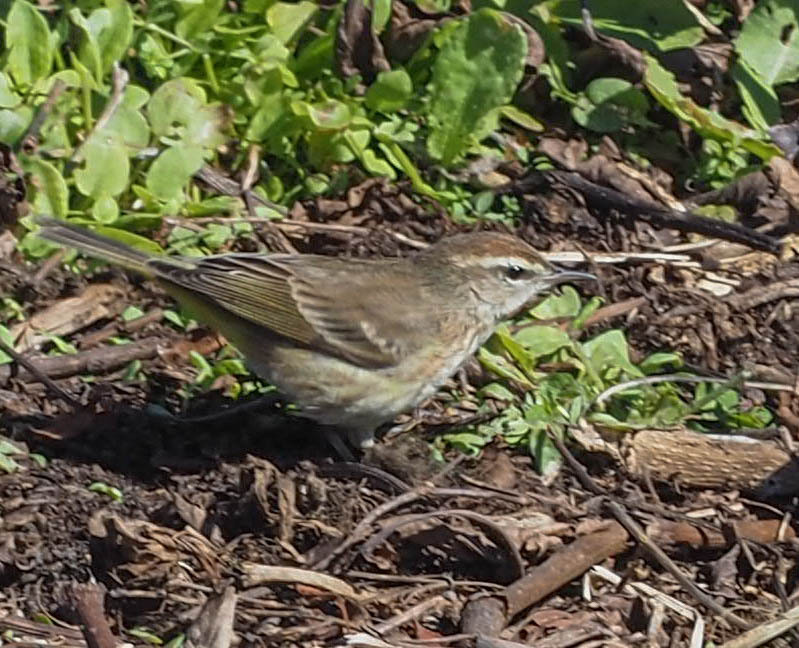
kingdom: Animalia
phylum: Chordata
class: Aves
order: Passeriformes
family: Parulidae
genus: Setophaga
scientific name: Setophaga palmarum
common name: Palm warbler
